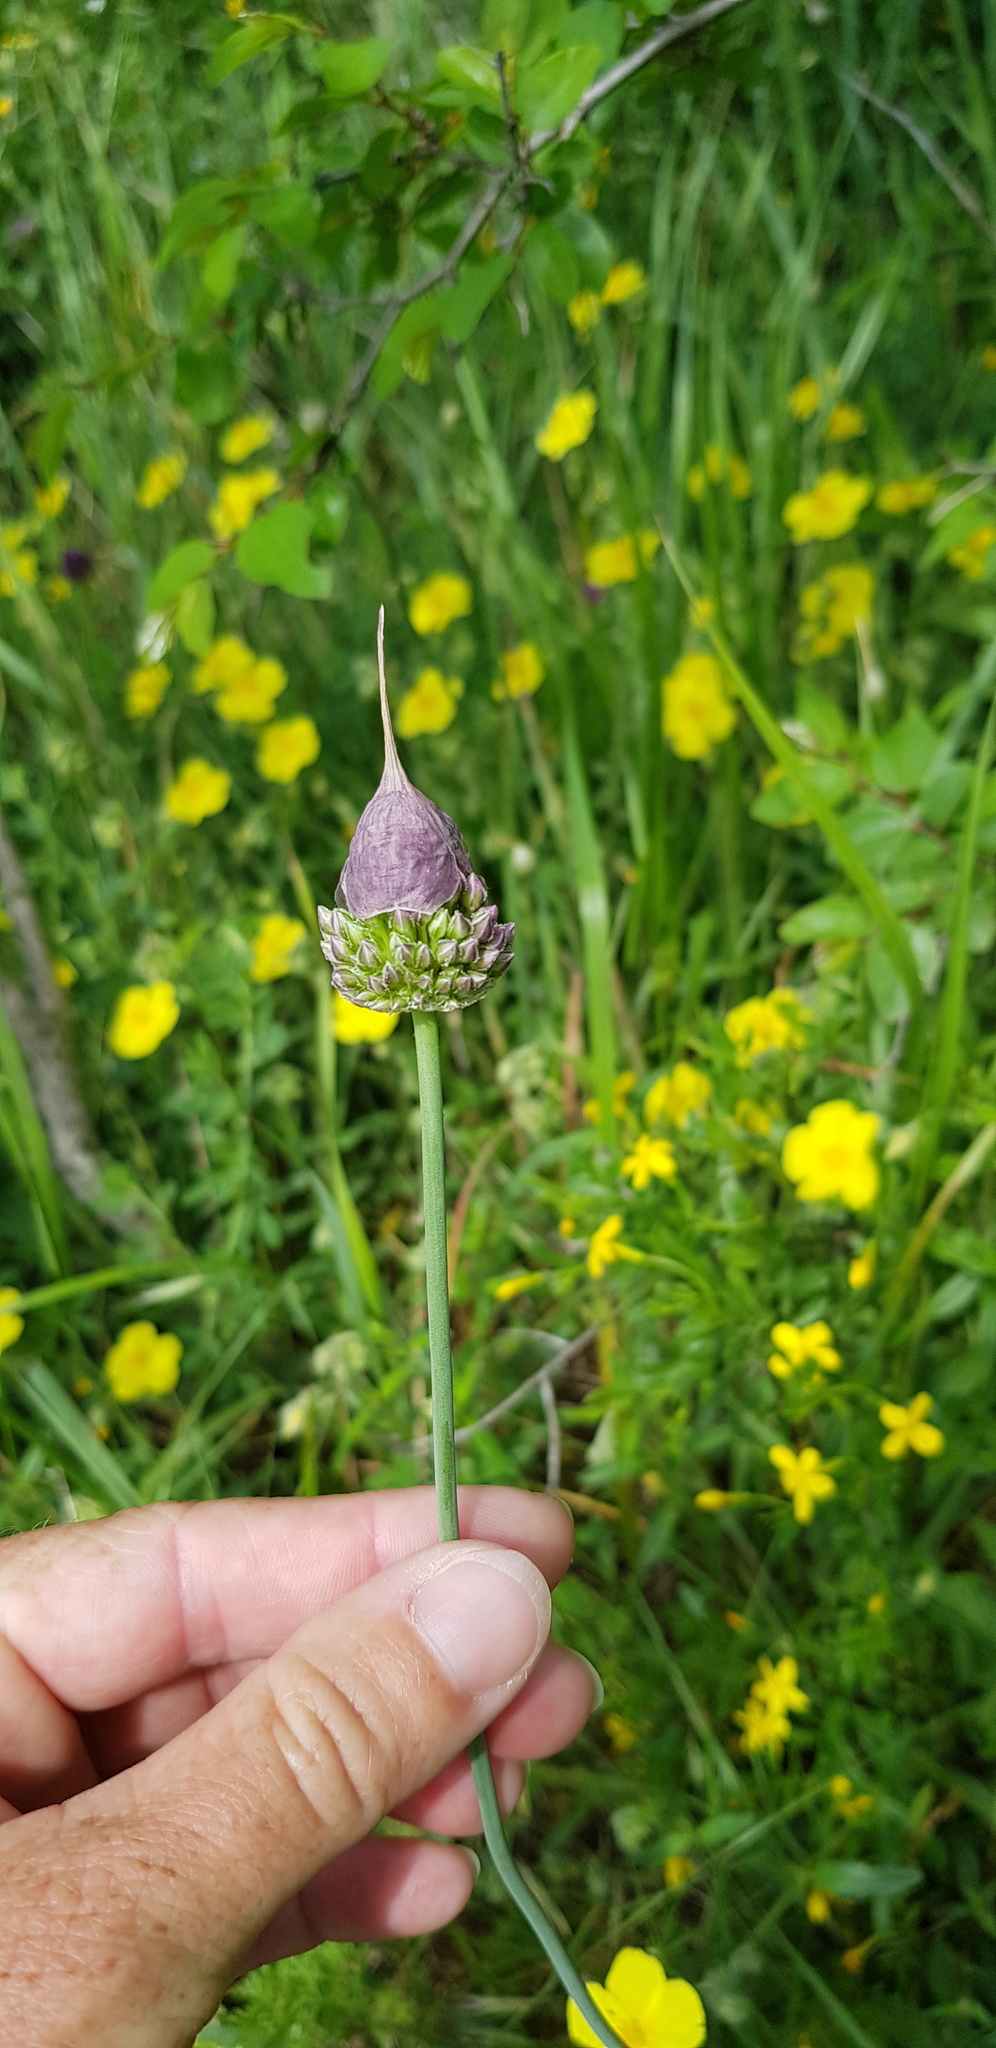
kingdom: Plantae
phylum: Tracheophyta
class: Liliopsida
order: Asparagales
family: Amaryllidaceae
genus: Allium
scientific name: Allium rotundum
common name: Sand leek
